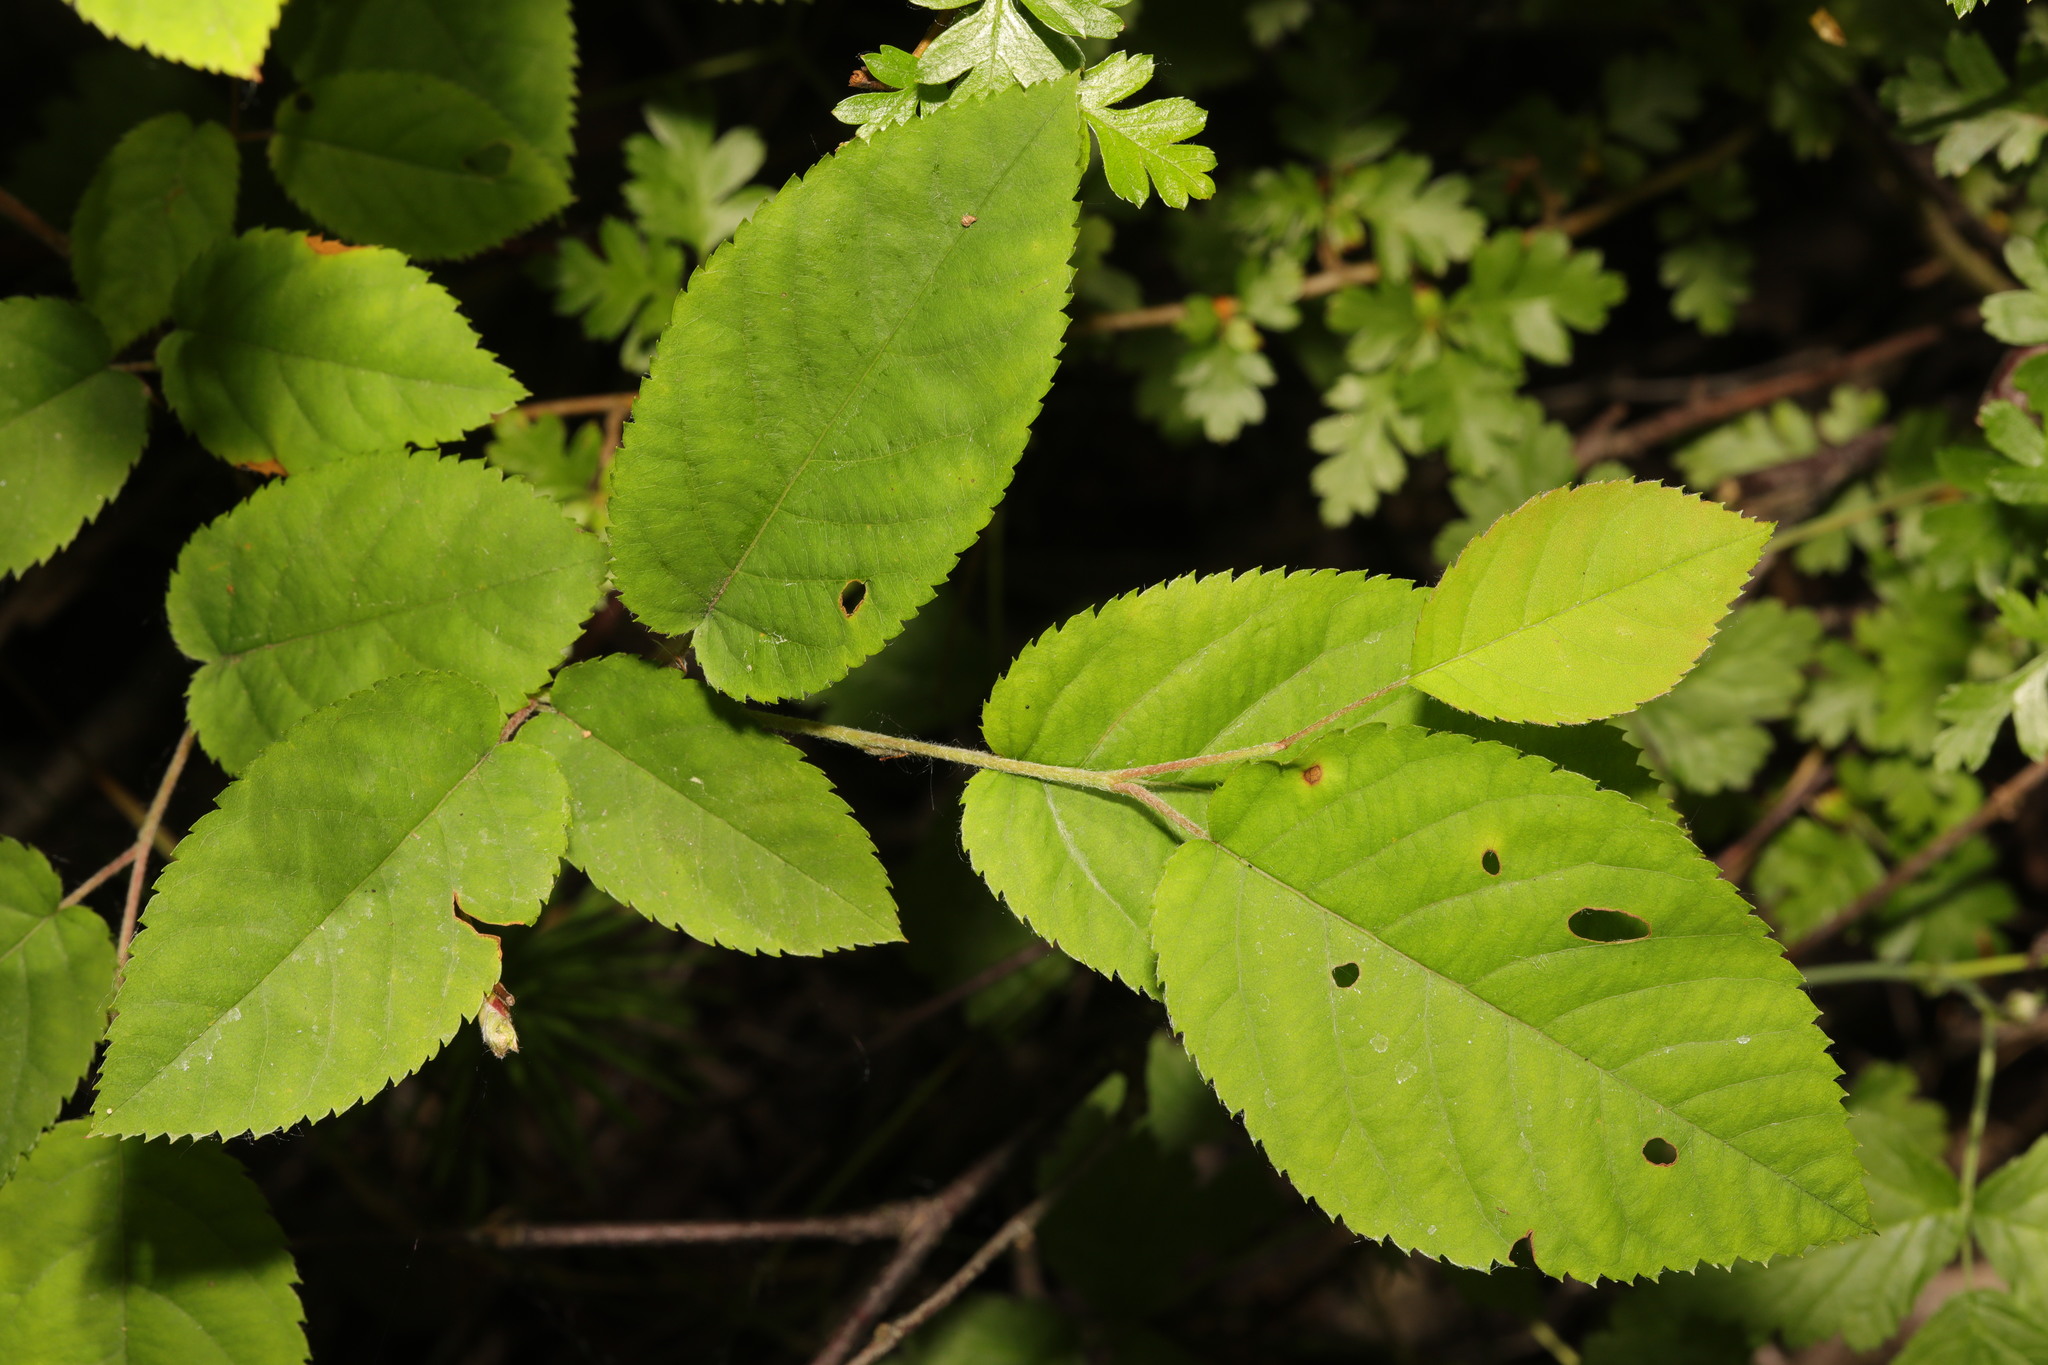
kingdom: Plantae
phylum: Tracheophyta
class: Magnoliopsida
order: Rosales
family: Rosaceae
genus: Amelanchier
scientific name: Amelanchier lamarckii
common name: Juneberry
